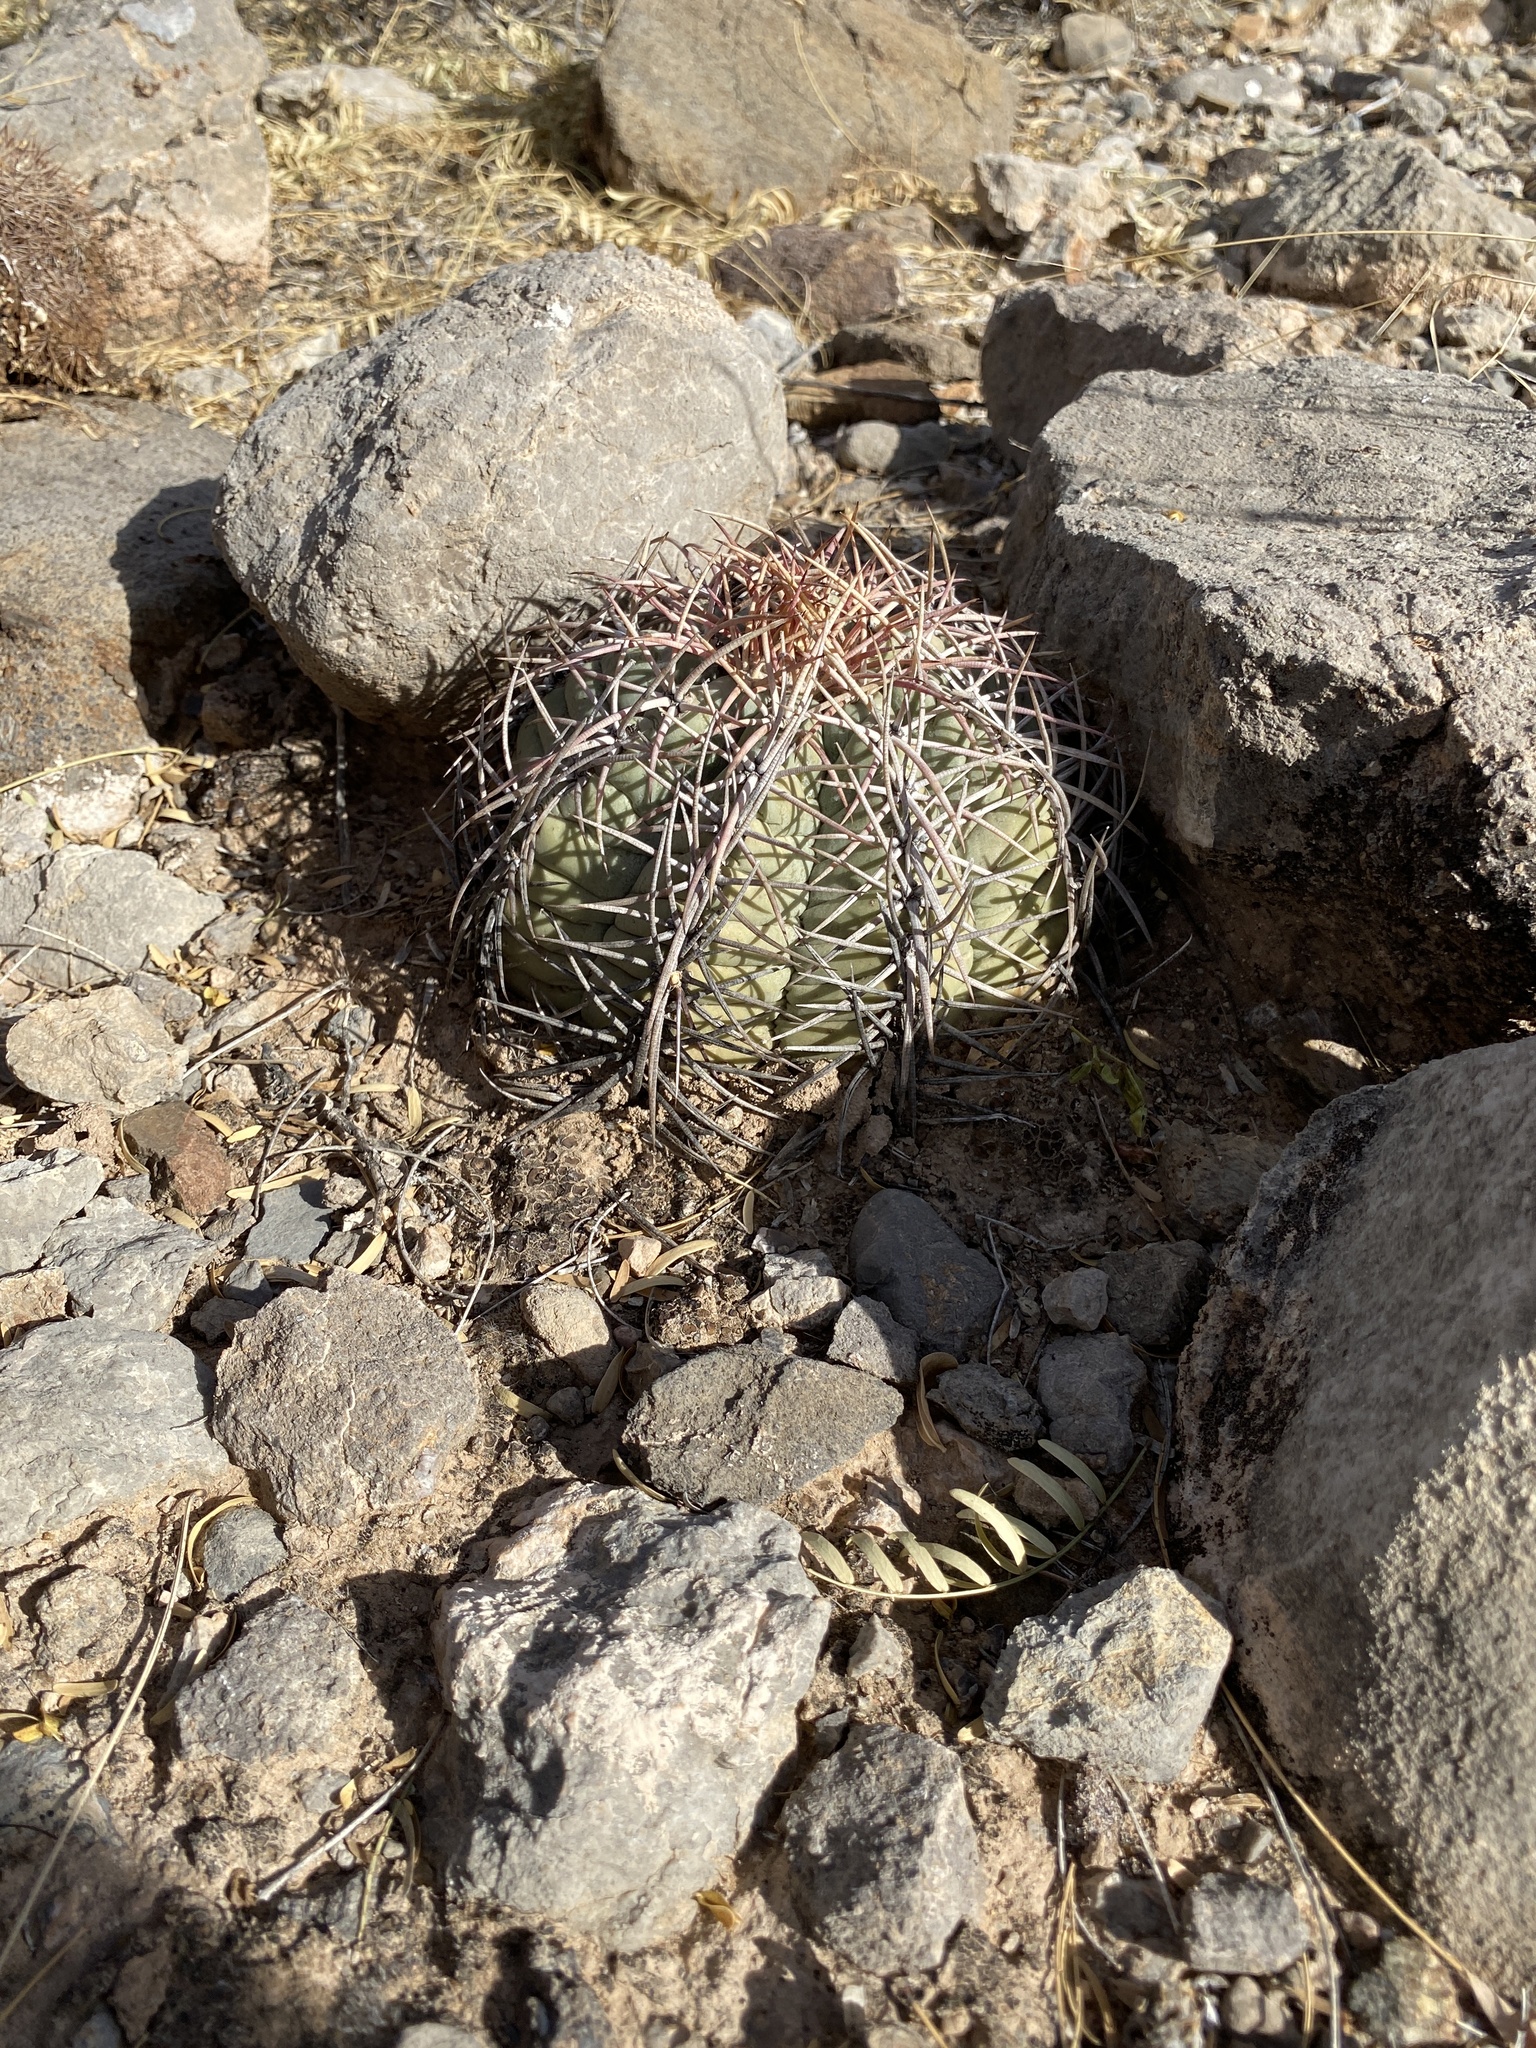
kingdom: Plantae
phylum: Tracheophyta
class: Magnoliopsida
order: Caryophyllales
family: Cactaceae
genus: Echinocactus
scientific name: Echinocactus horizonthalonius
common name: Devilshead
